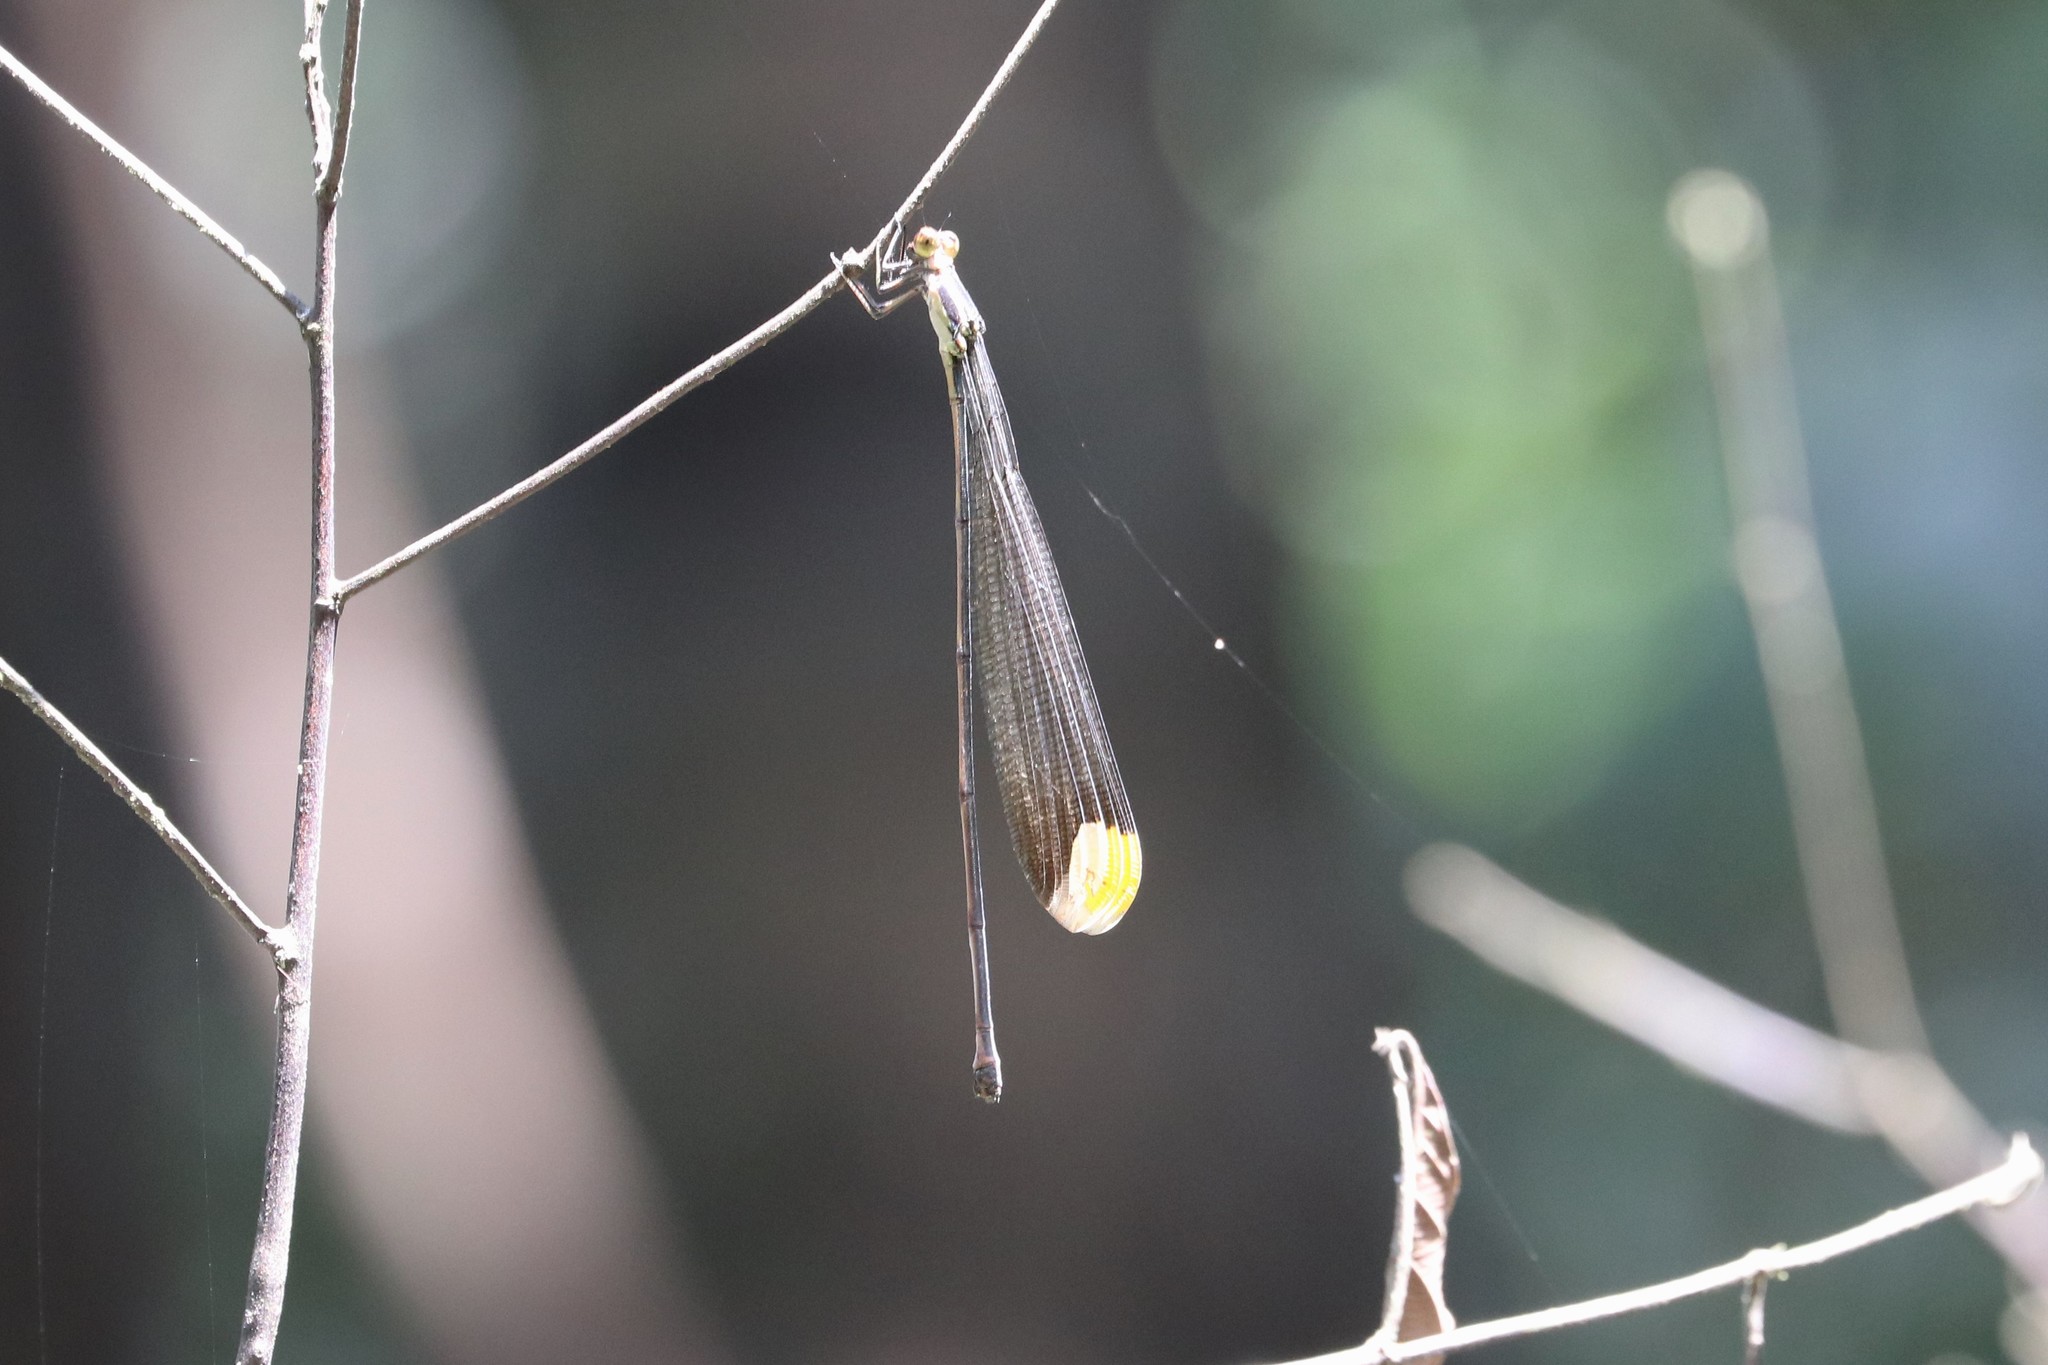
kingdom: Animalia
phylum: Arthropoda
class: Insecta
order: Odonata
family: Coenagrionidae
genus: Mecistogaster
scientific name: Mecistogaster ornata
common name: Ornate helicopter
